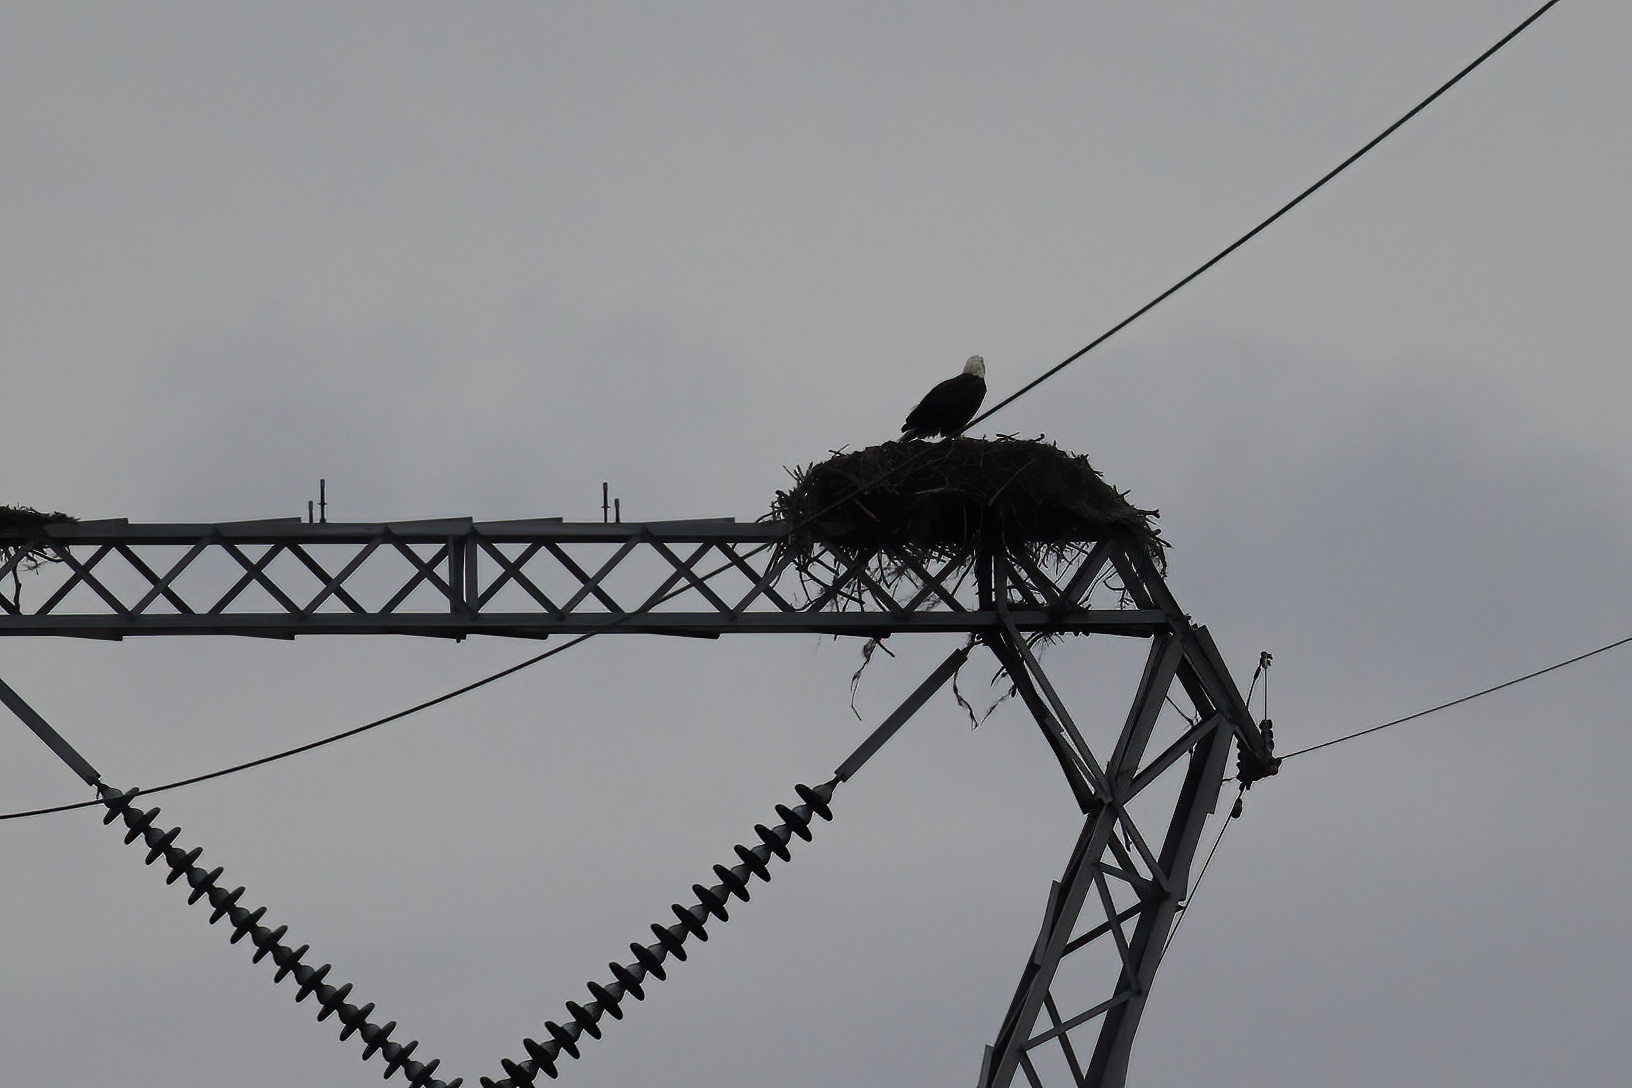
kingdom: Animalia
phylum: Chordata
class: Aves
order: Accipitriformes
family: Accipitridae
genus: Haliaeetus
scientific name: Haliaeetus leucocephalus
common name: Bald eagle
